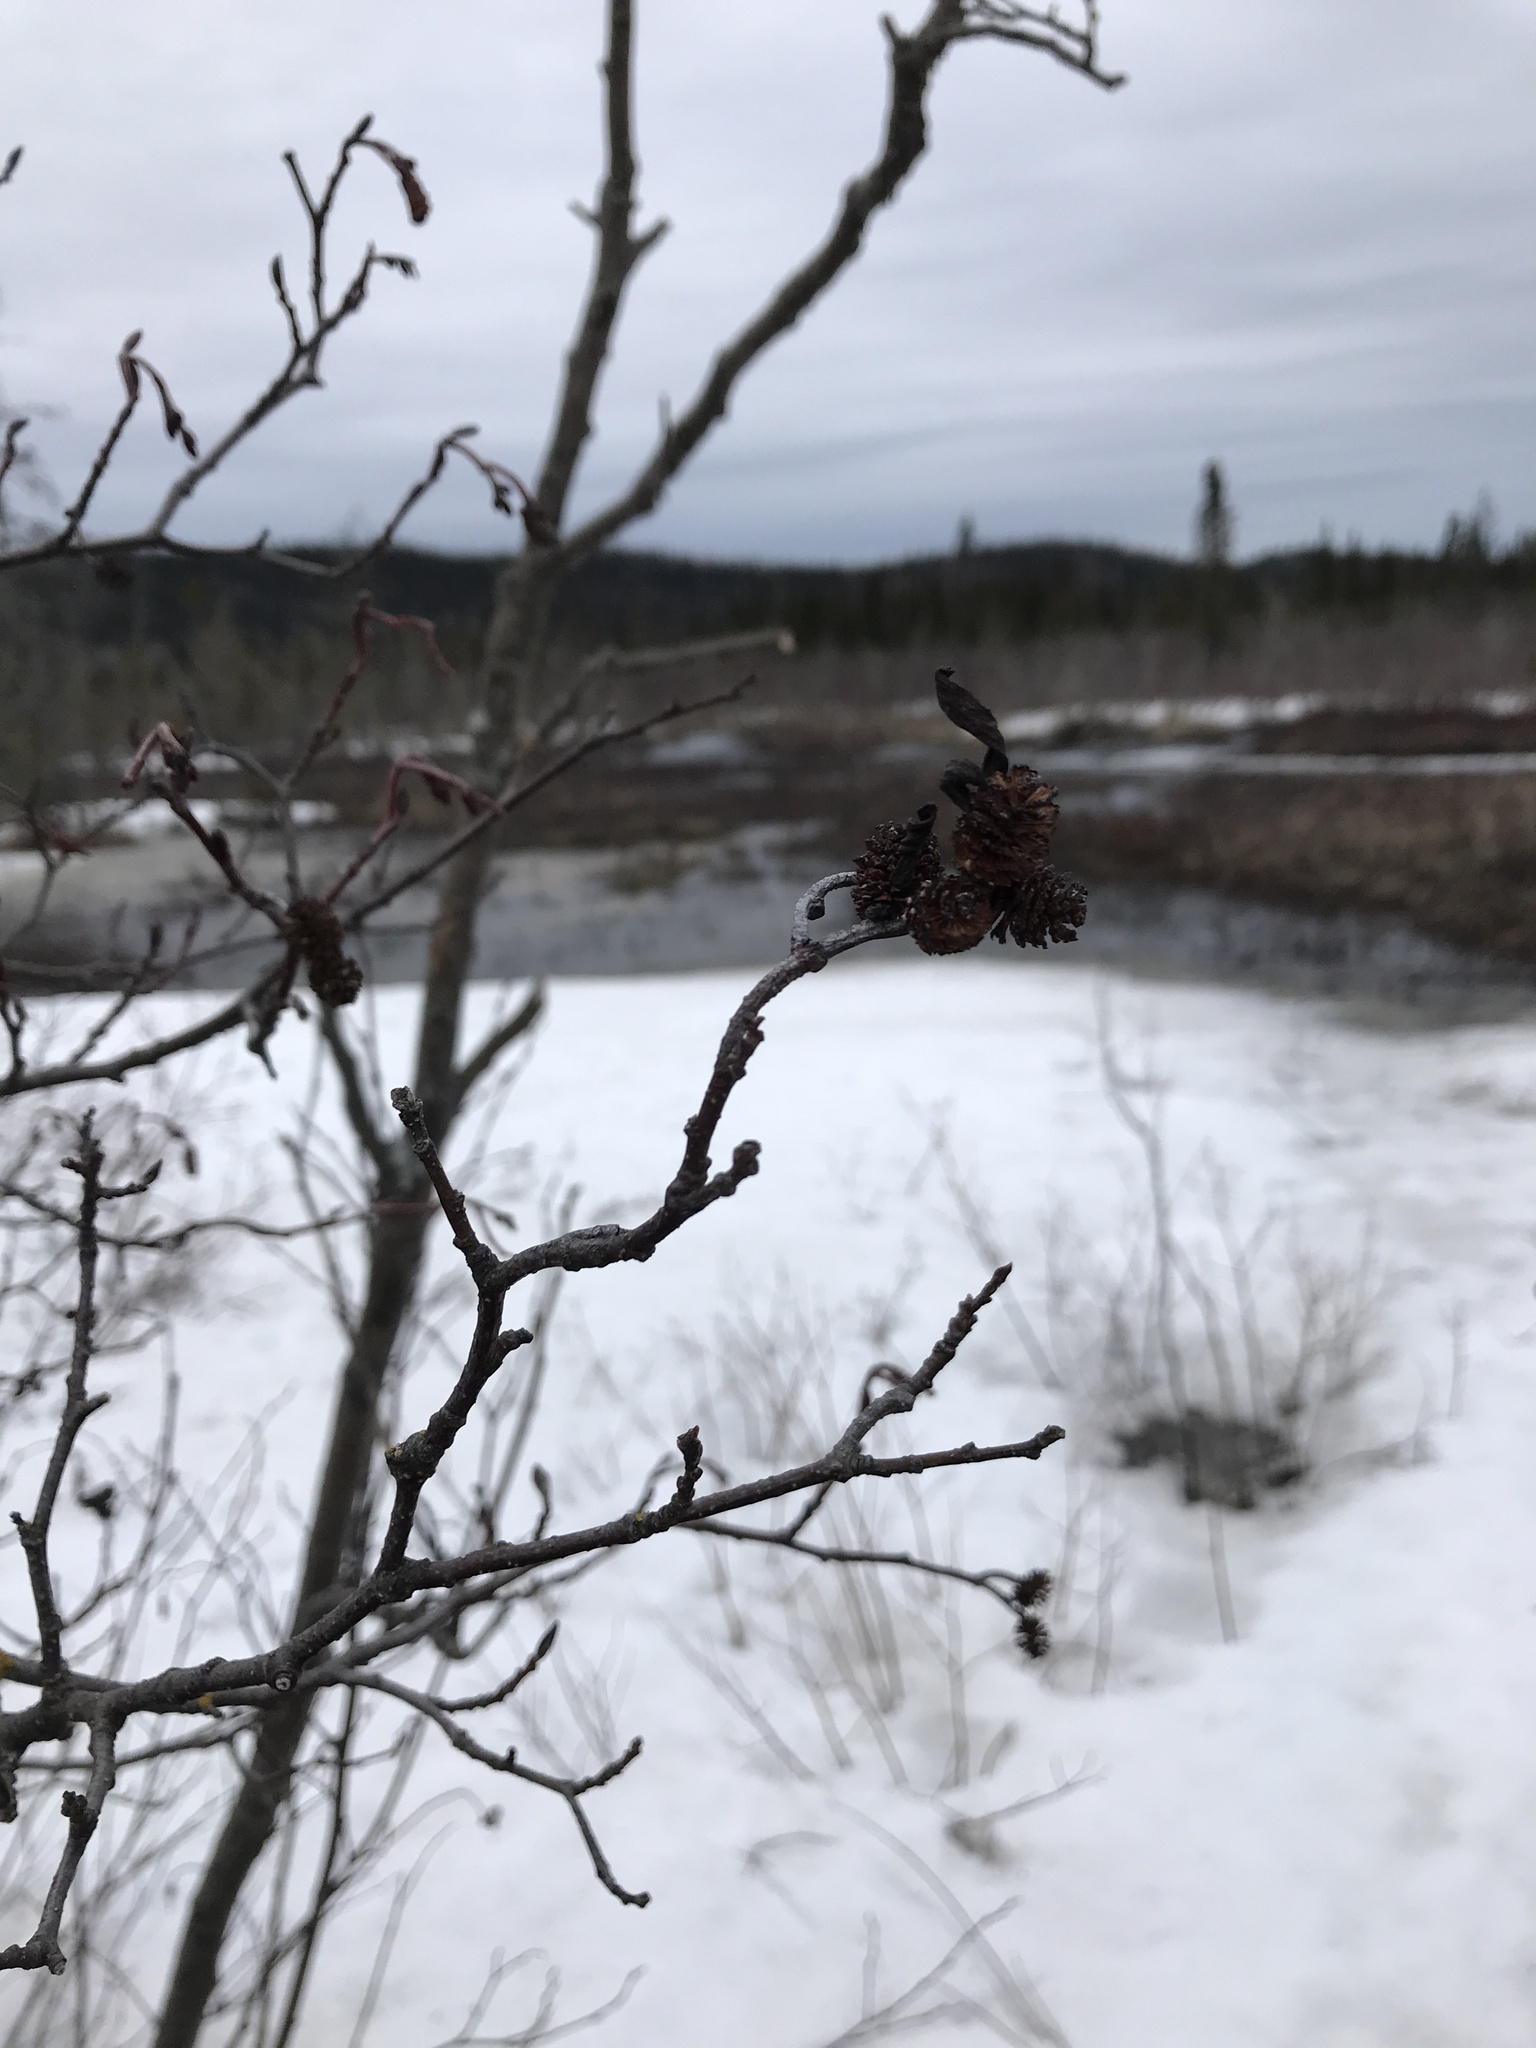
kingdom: Plantae
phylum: Tracheophyta
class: Magnoliopsida
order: Fagales
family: Betulaceae
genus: Alnus
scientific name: Alnus incana
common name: Grey alder
